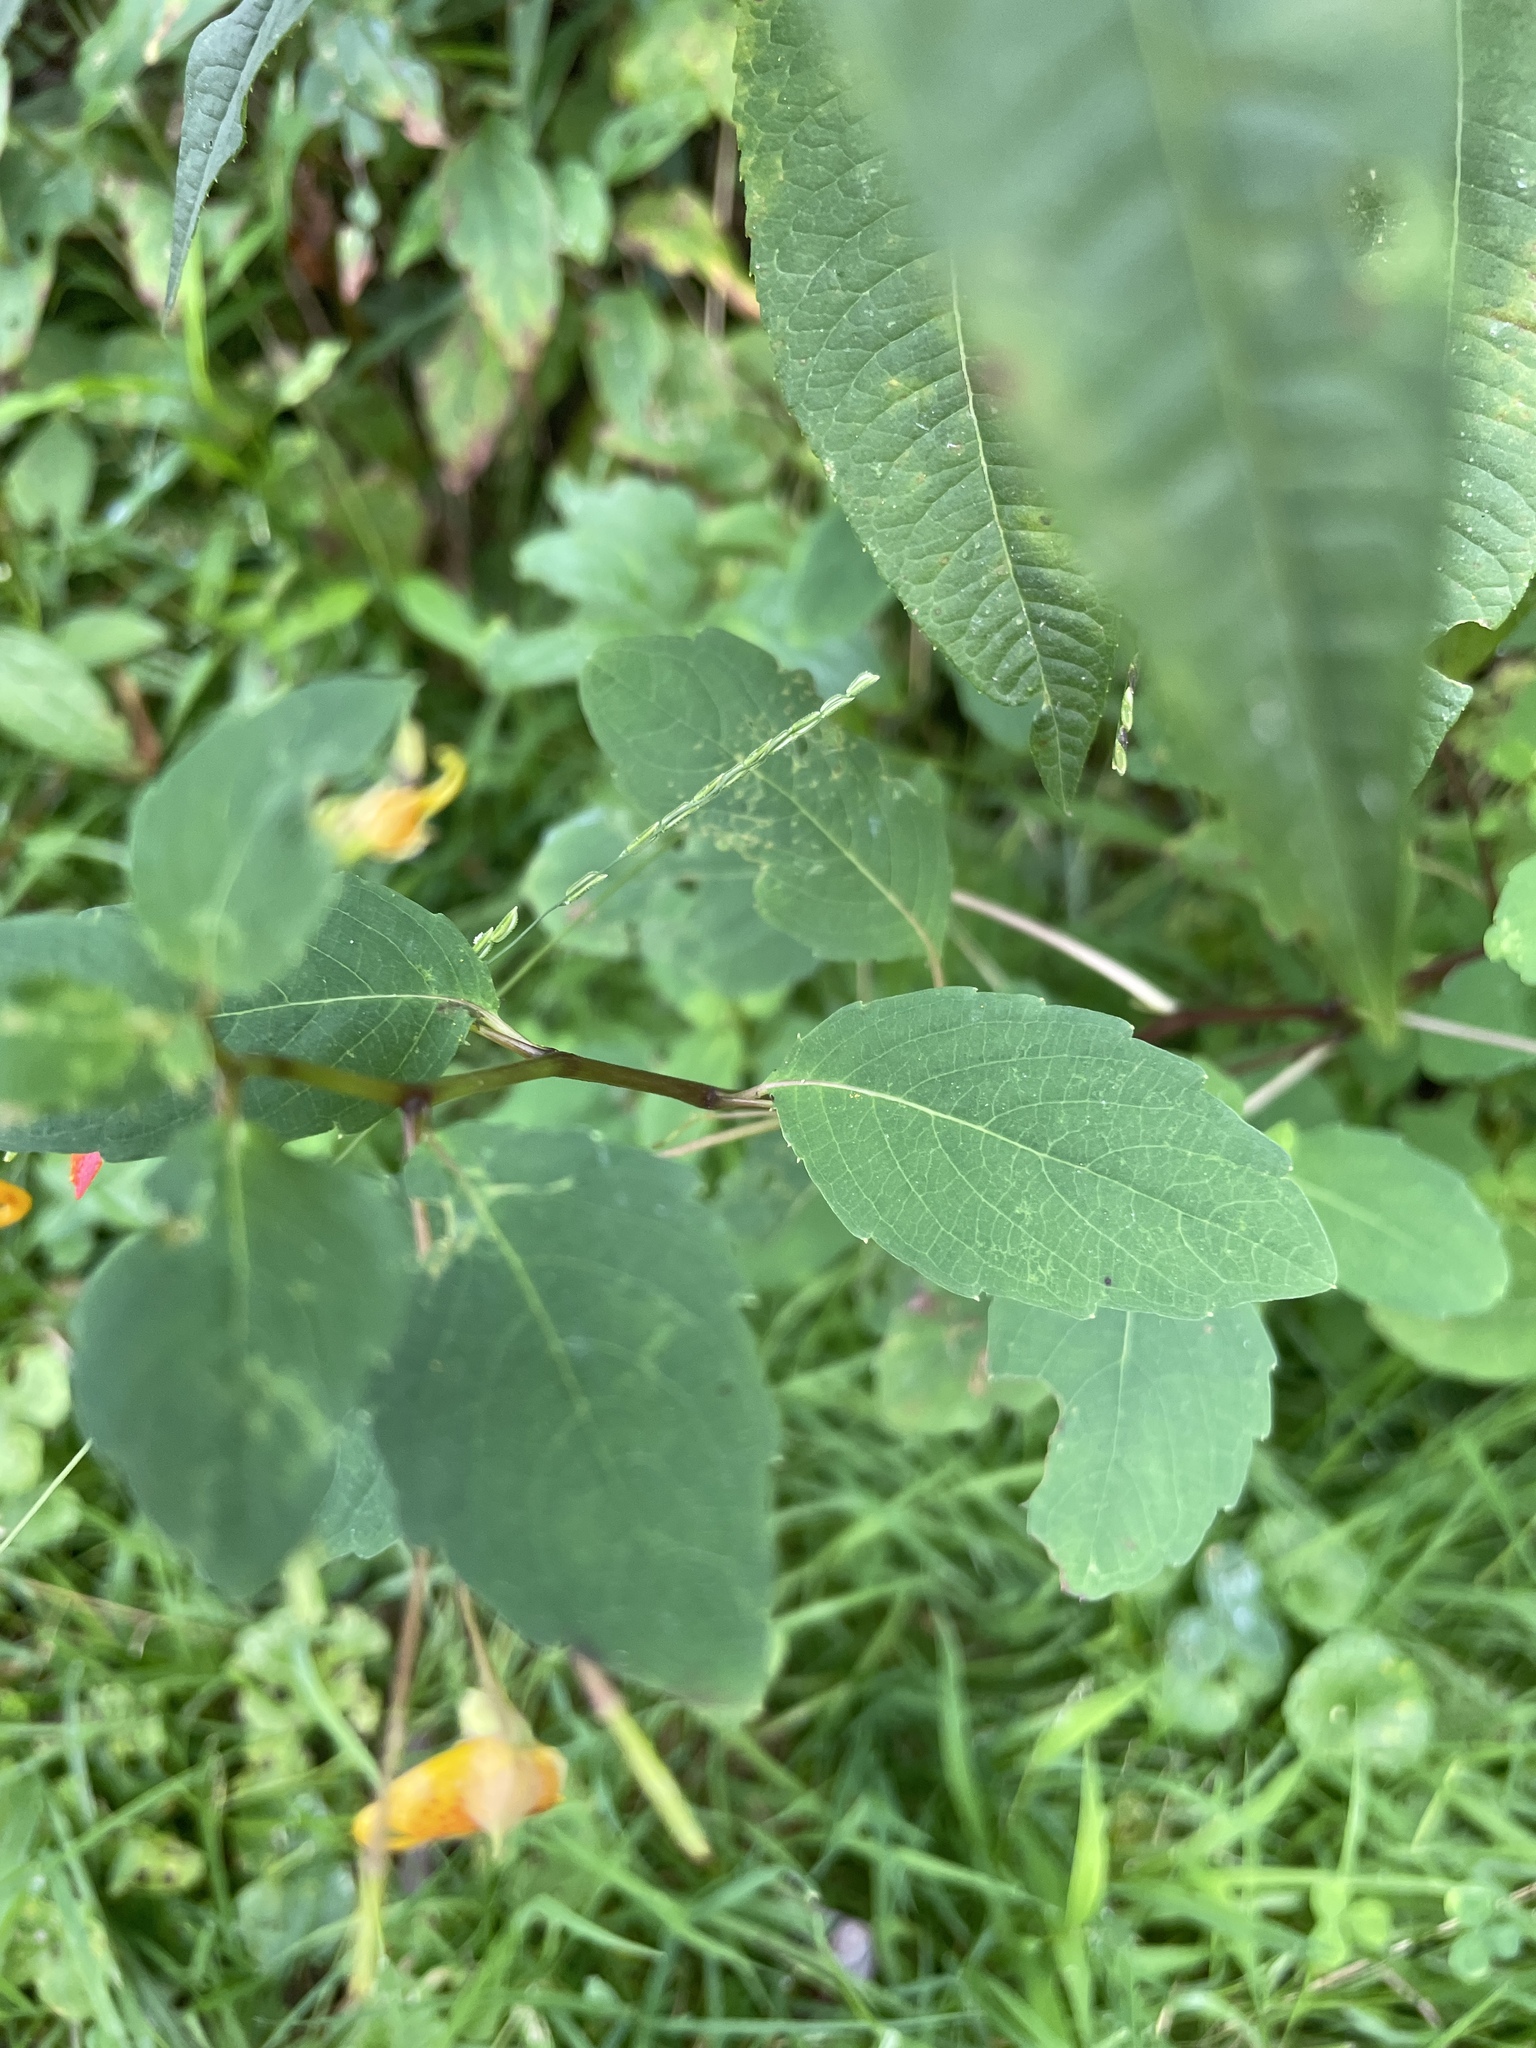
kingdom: Plantae
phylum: Tracheophyta
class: Magnoliopsida
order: Ericales
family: Balsaminaceae
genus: Impatiens
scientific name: Impatiens capensis
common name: Orange balsam
